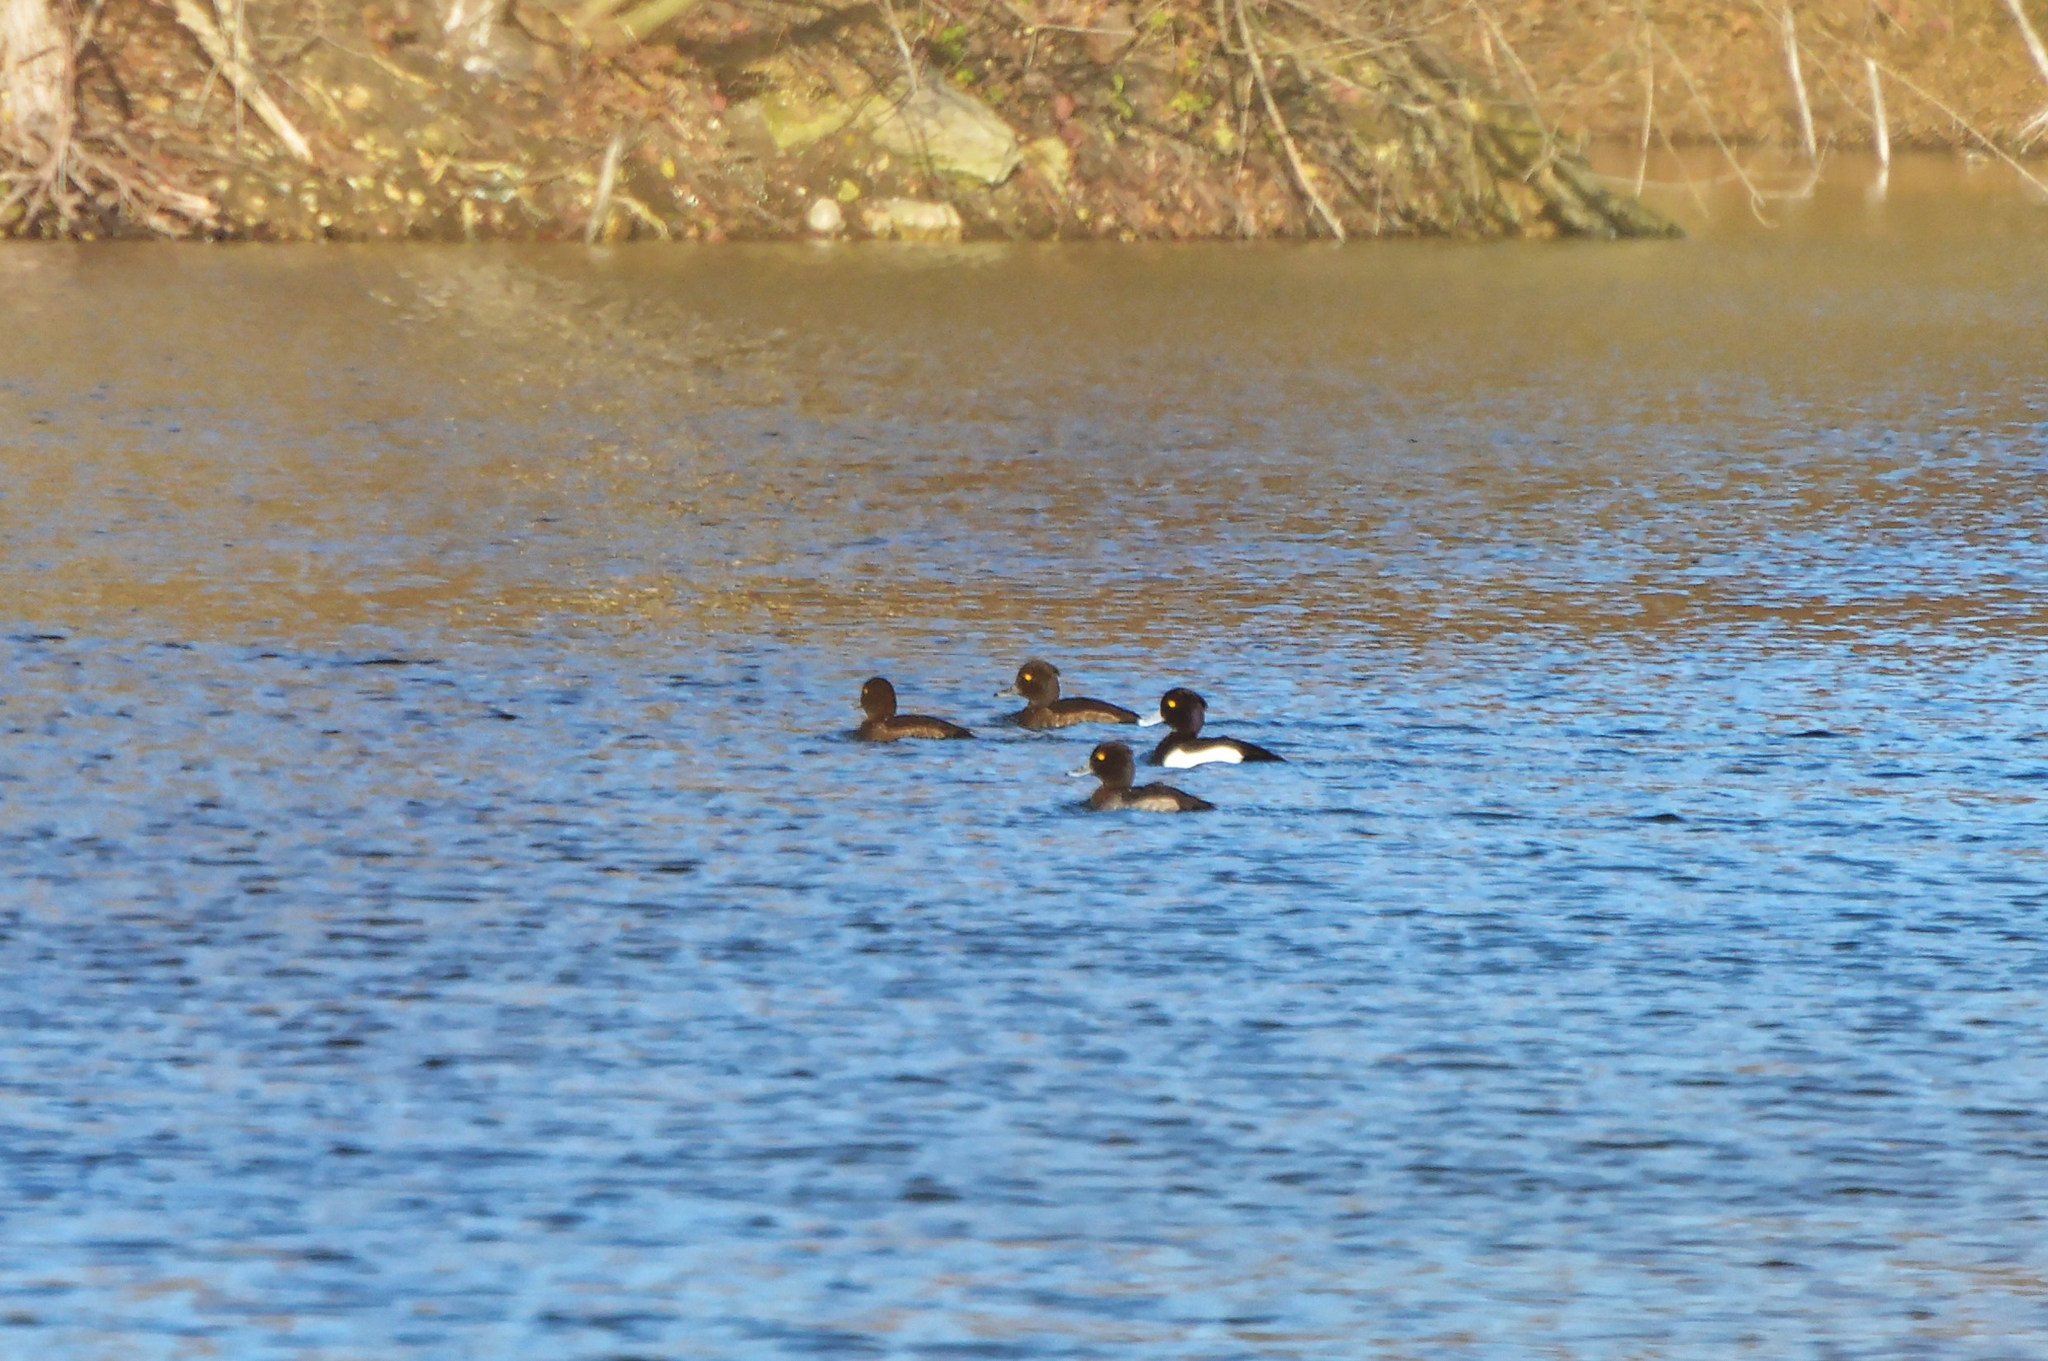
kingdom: Animalia
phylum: Chordata
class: Aves
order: Anseriformes
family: Anatidae
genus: Aythya
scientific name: Aythya fuligula
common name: Tufted duck
